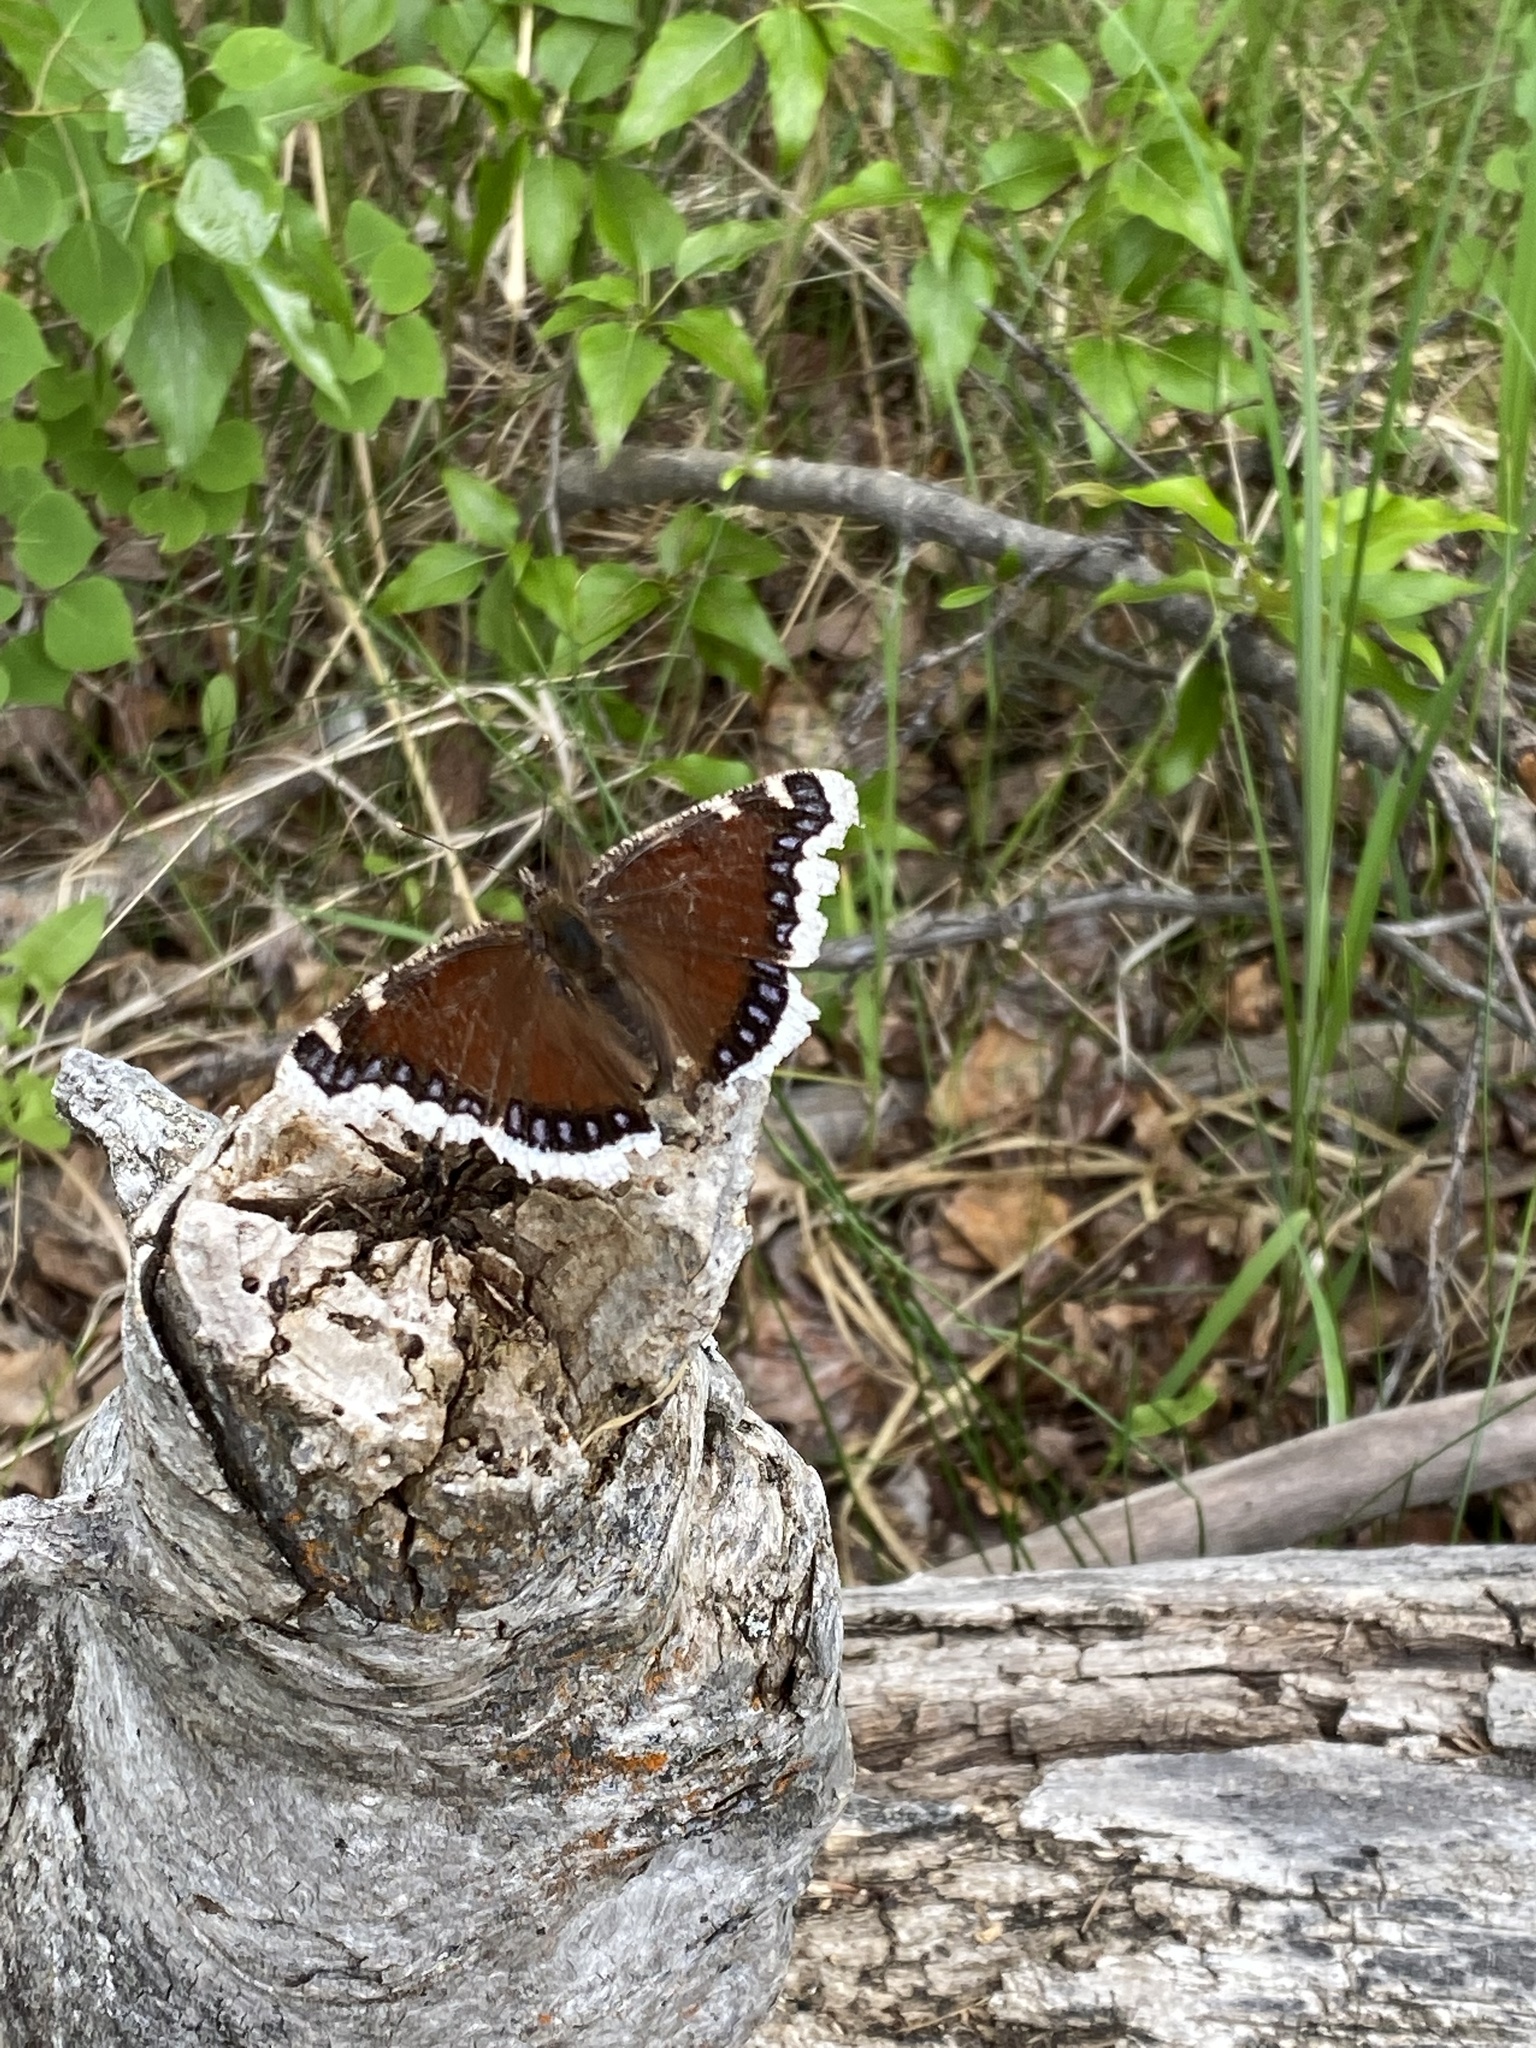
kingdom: Animalia
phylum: Arthropoda
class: Insecta
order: Lepidoptera
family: Nymphalidae
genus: Nymphalis
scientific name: Nymphalis antiopa
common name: Camberwell beauty
